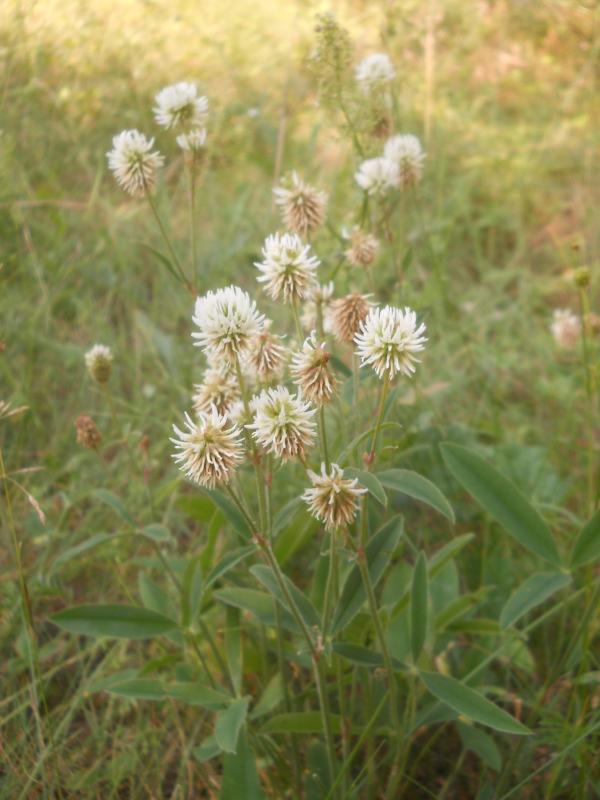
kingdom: Plantae
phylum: Tracheophyta
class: Magnoliopsida
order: Fabales
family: Fabaceae
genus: Trifolium
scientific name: Trifolium montanum
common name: Mountain clover
